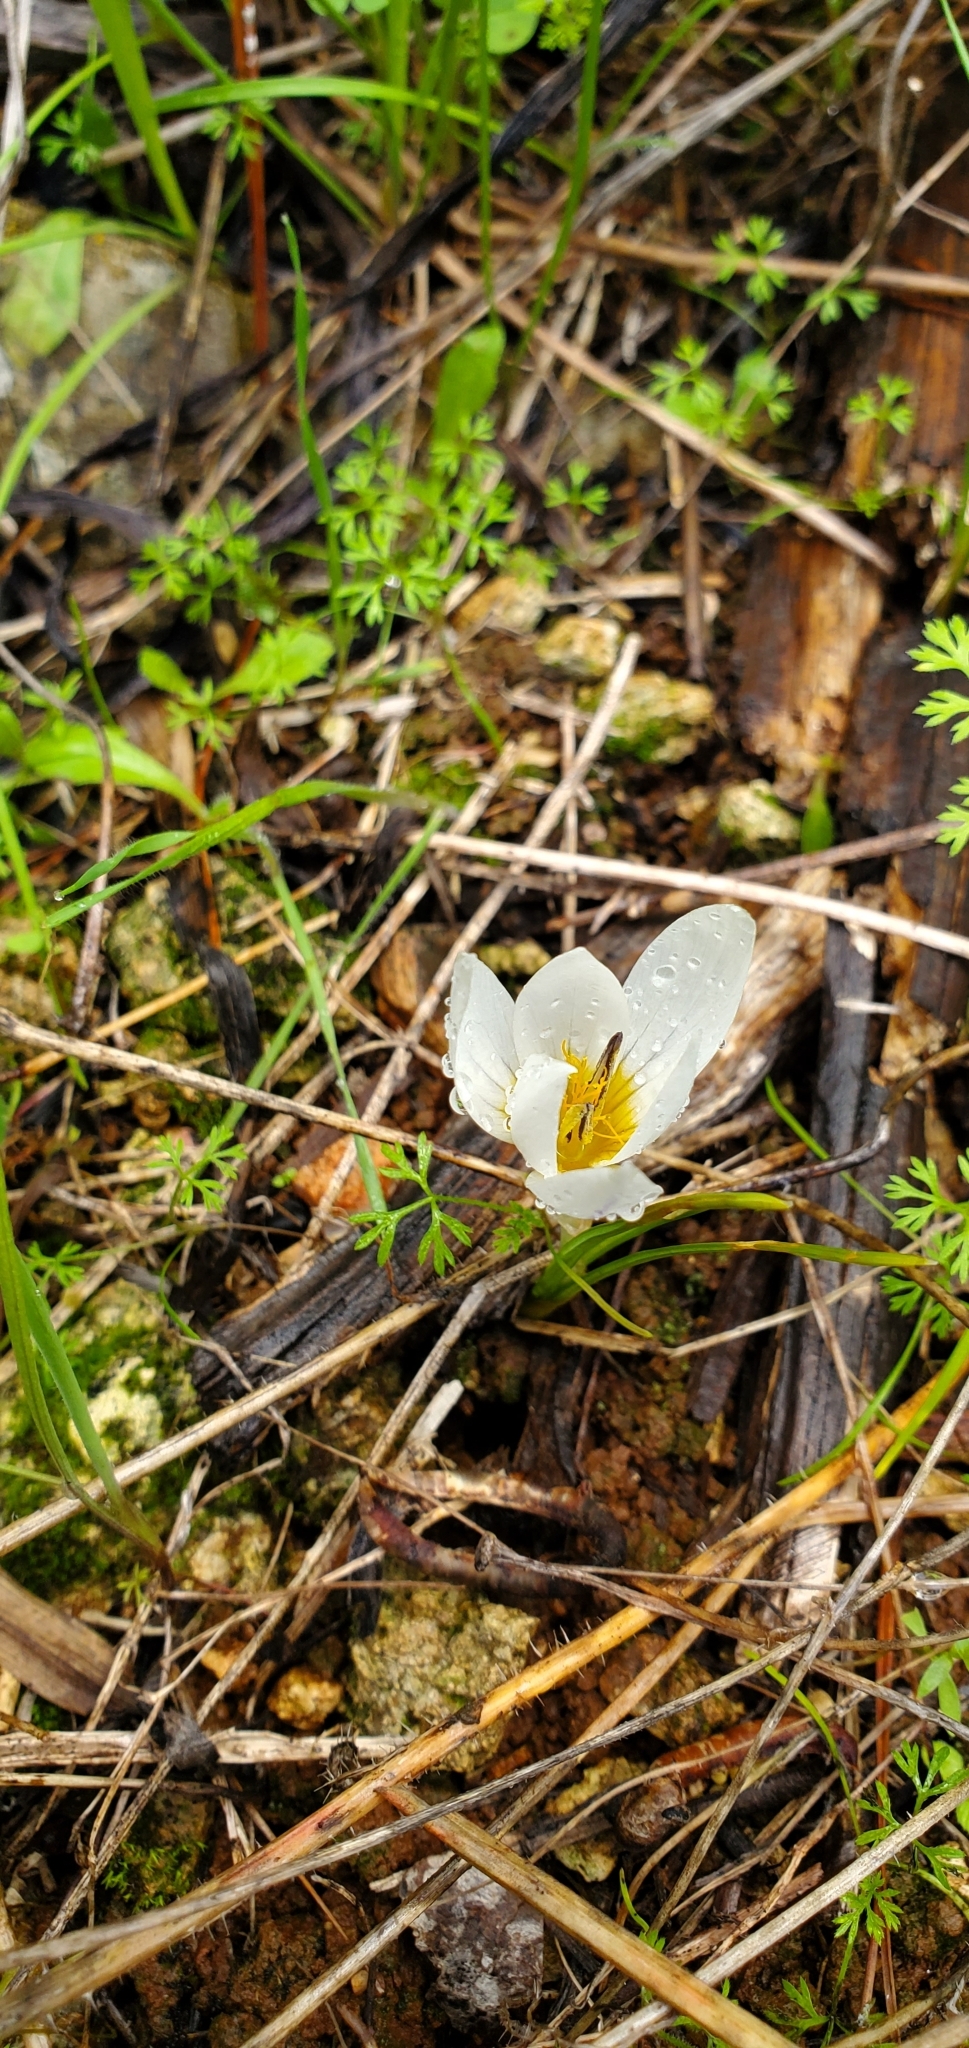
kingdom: Plantae
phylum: Tracheophyta
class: Liliopsida
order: Asparagales
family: Iridaceae
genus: Crocus
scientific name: Crocus hyemalis
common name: Winter crocus
